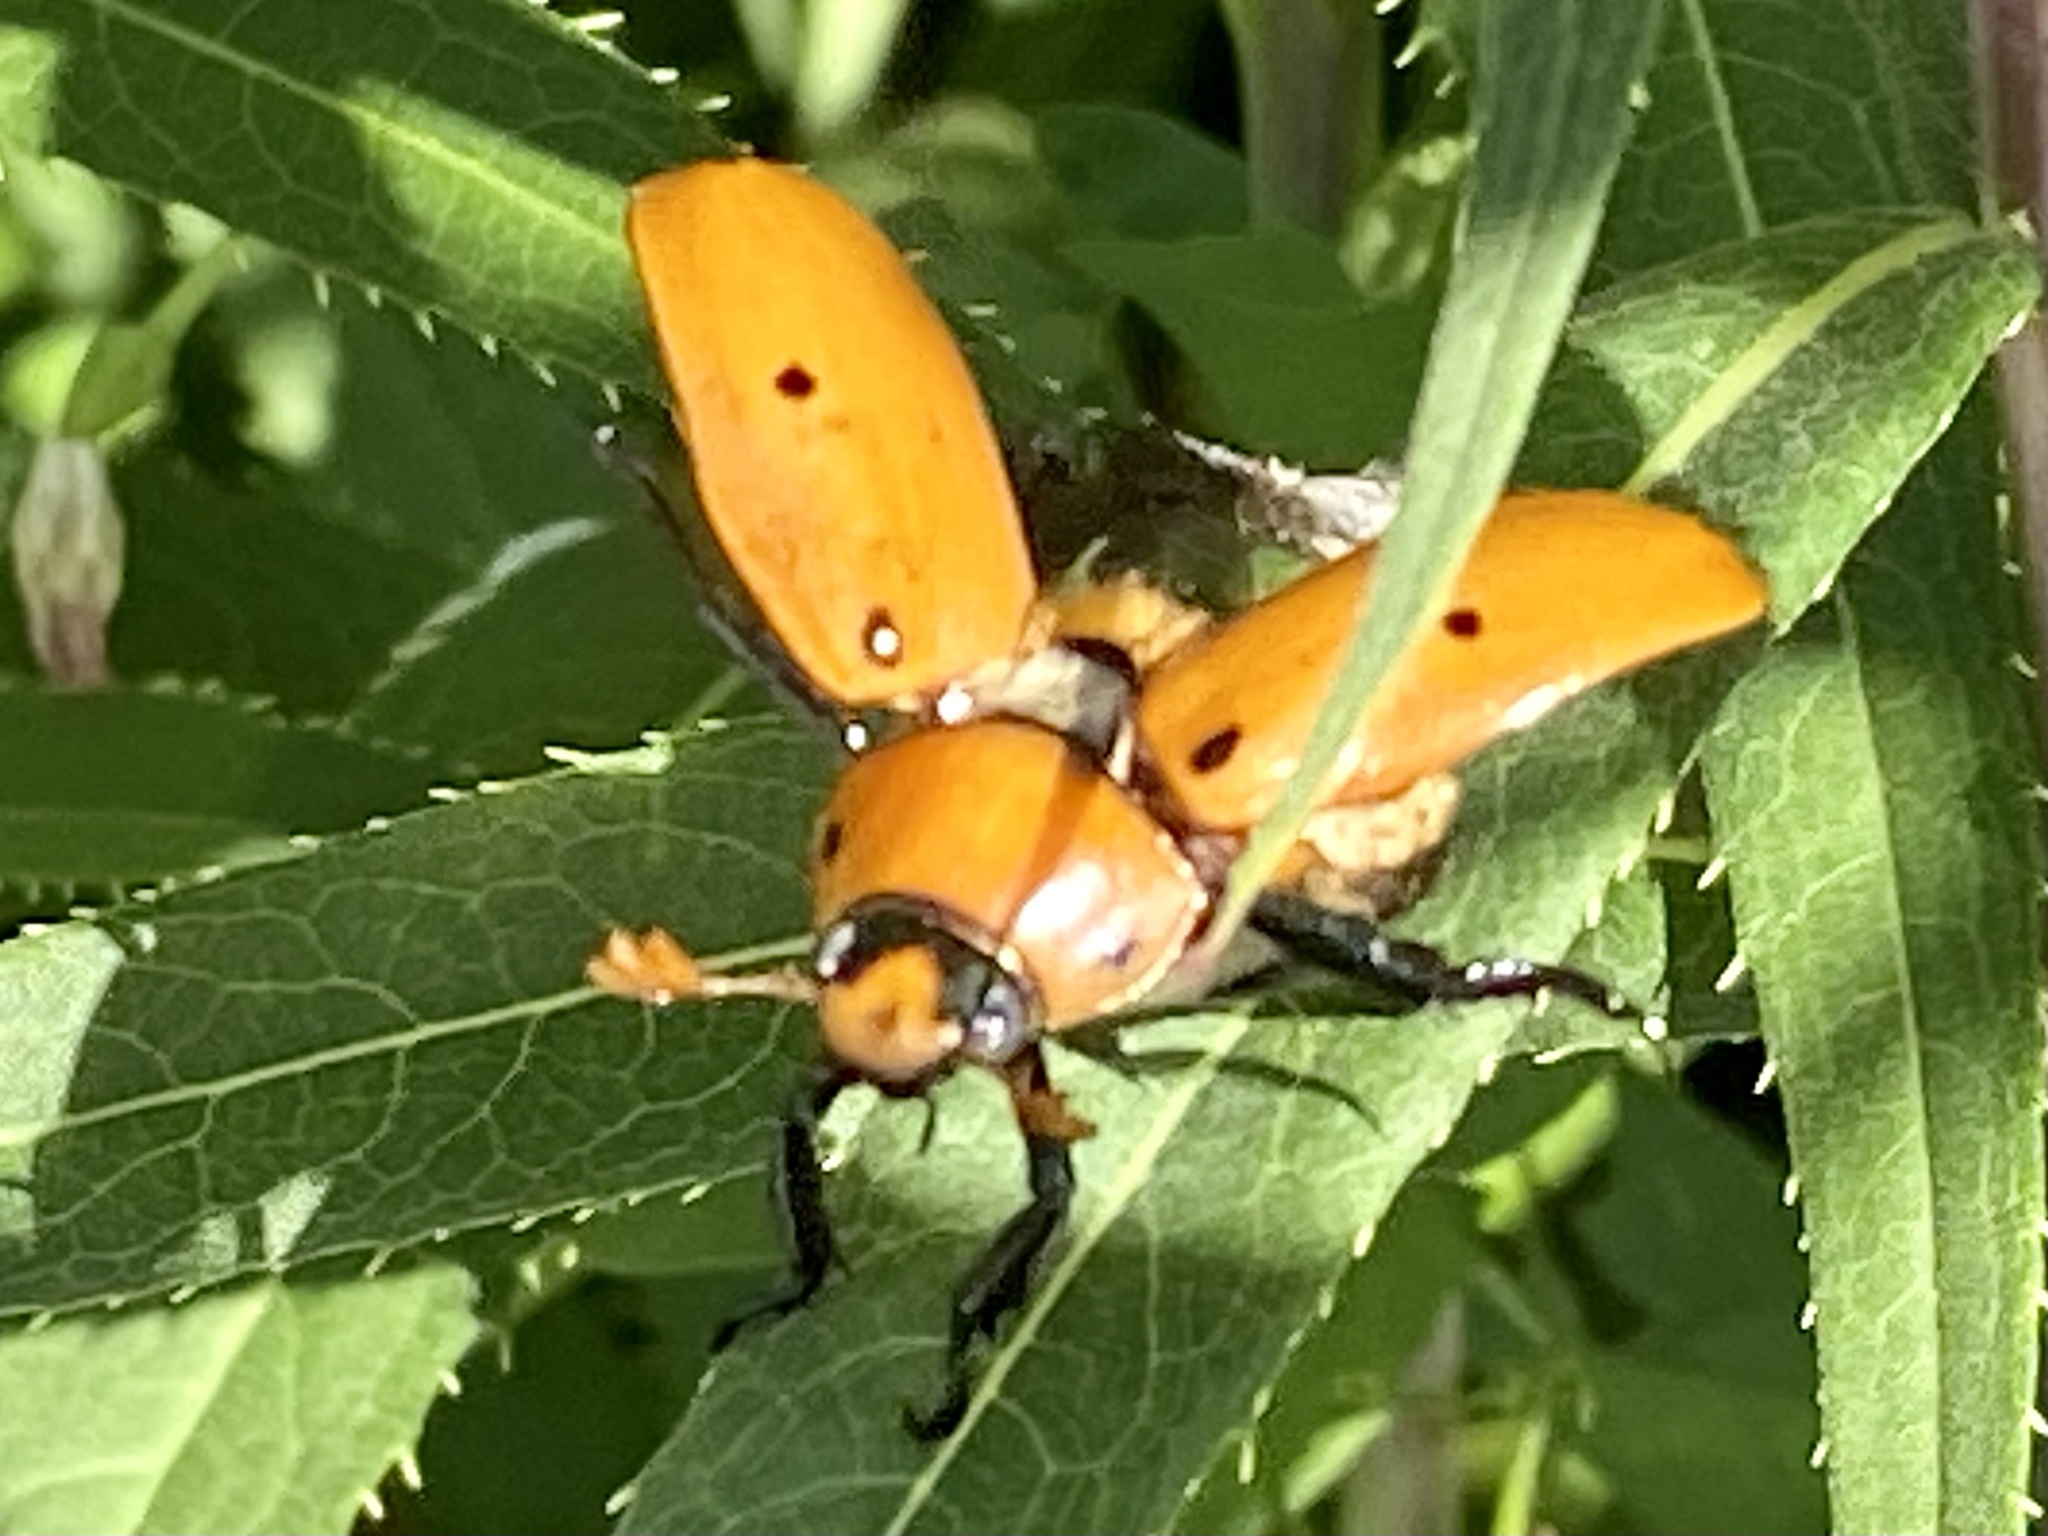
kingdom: Animalia
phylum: Arthropoda
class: Insecta
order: Coleoptera
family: Scarabaeidae
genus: Pelidnota
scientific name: Pelidnota punctata
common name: Grapevine beetle
